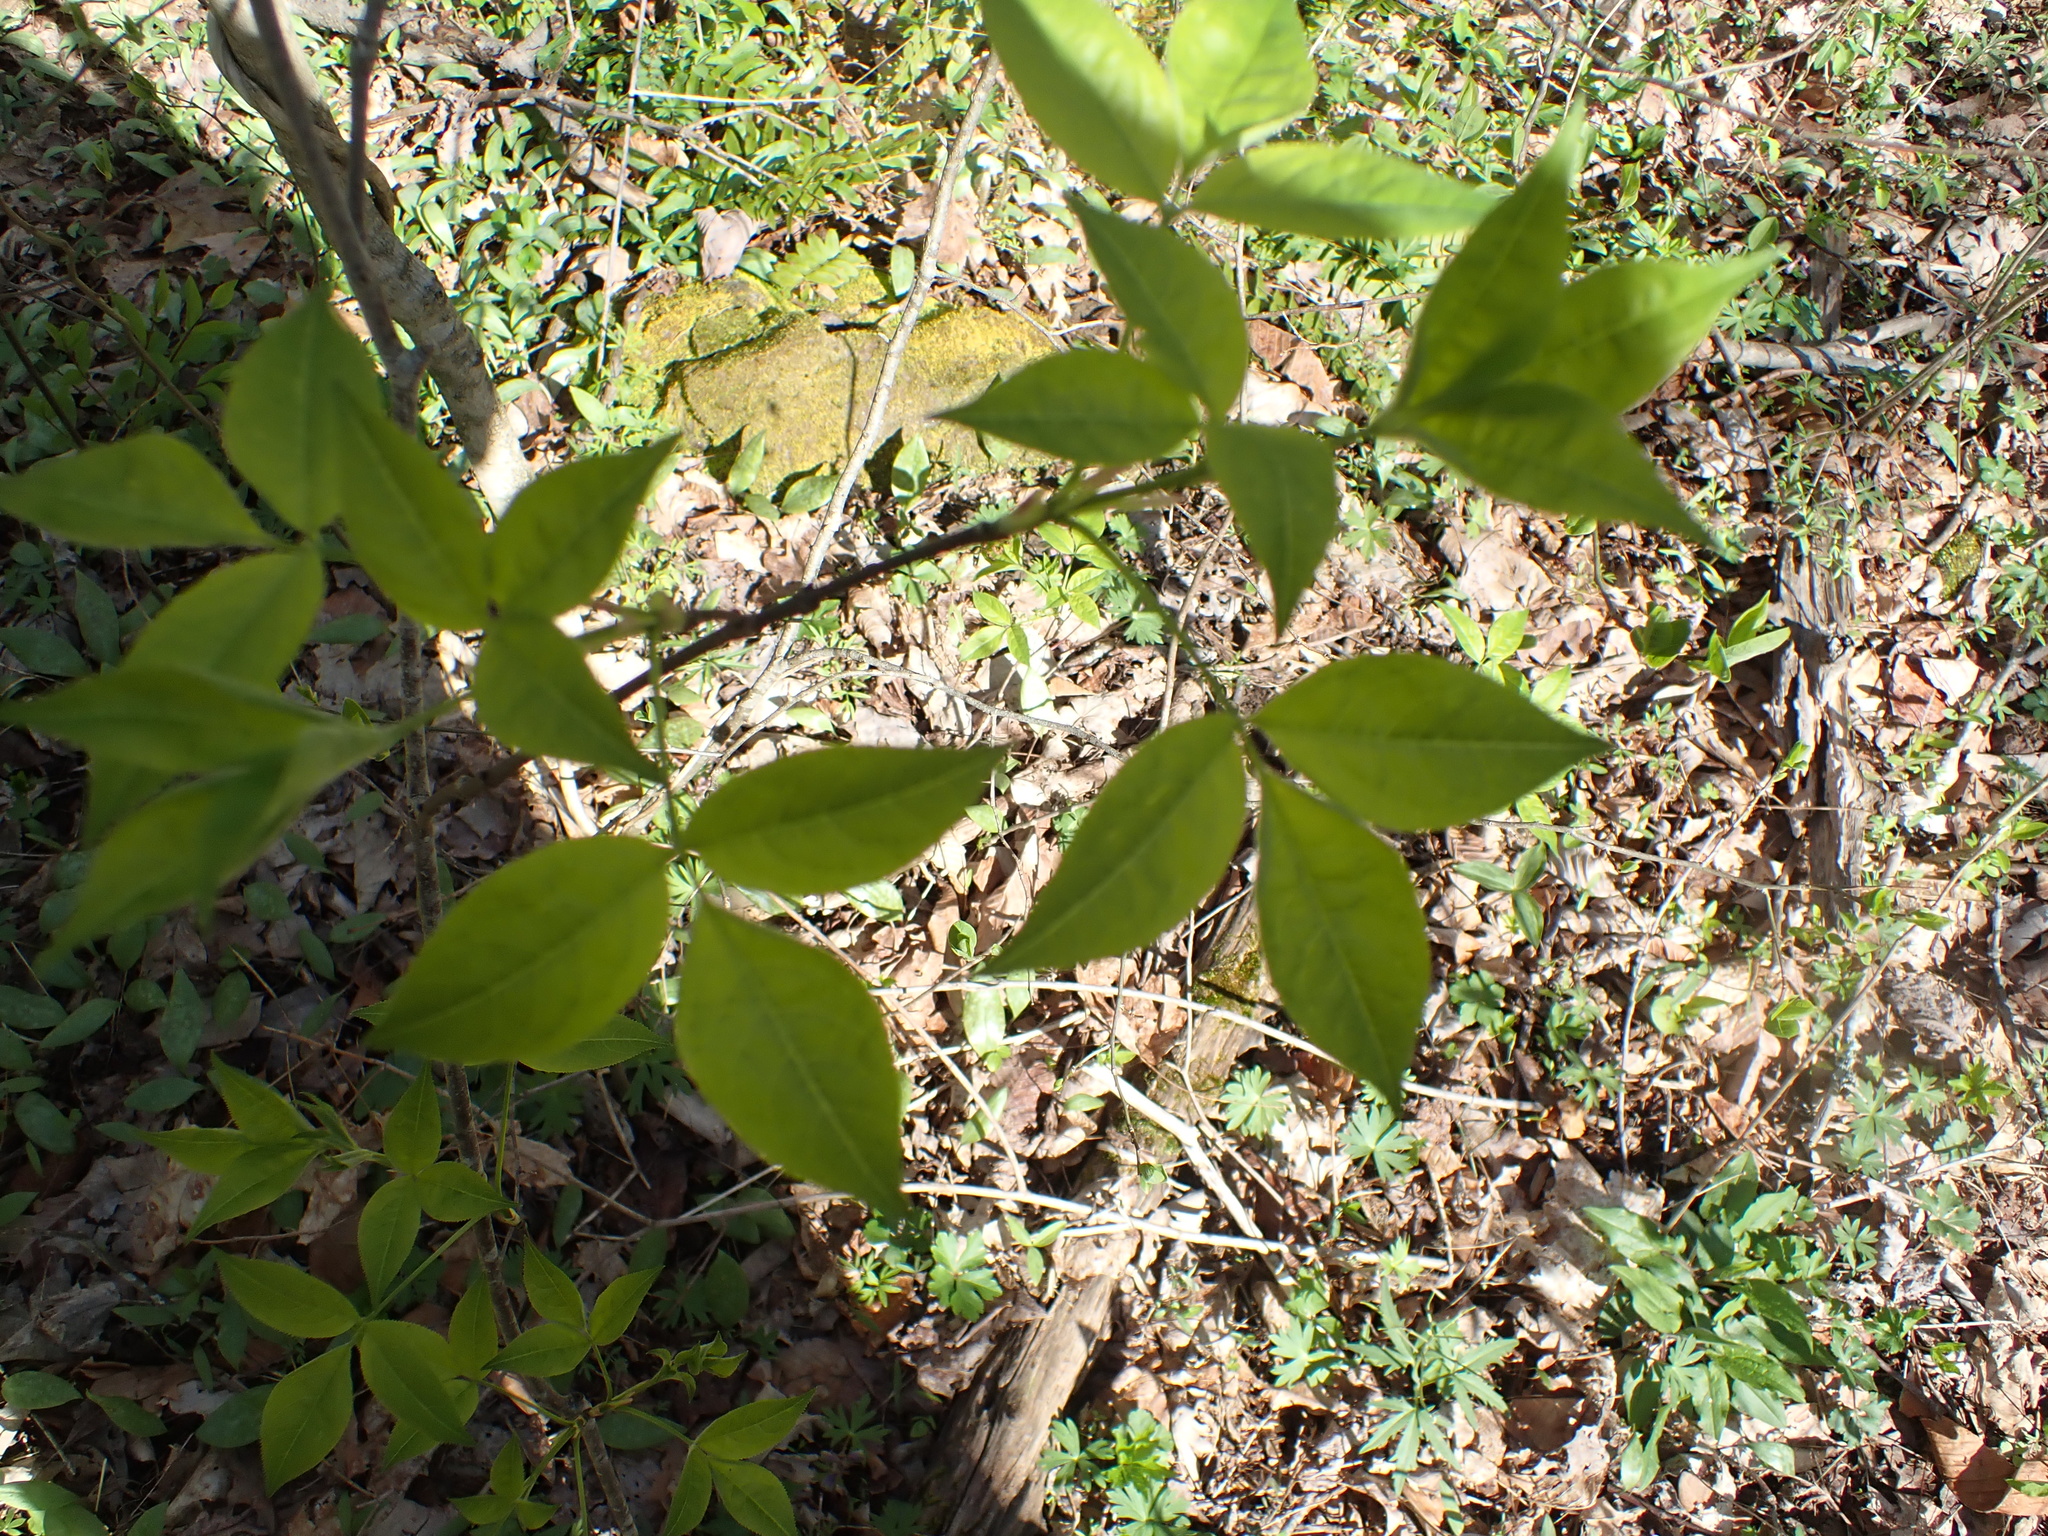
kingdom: Plantae
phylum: Tracheophyta
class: Magnoliopsida
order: Crossosomatales
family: Staphyleaceae
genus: Staphylea
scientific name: Staphylea trifolia
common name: American bladdernut
